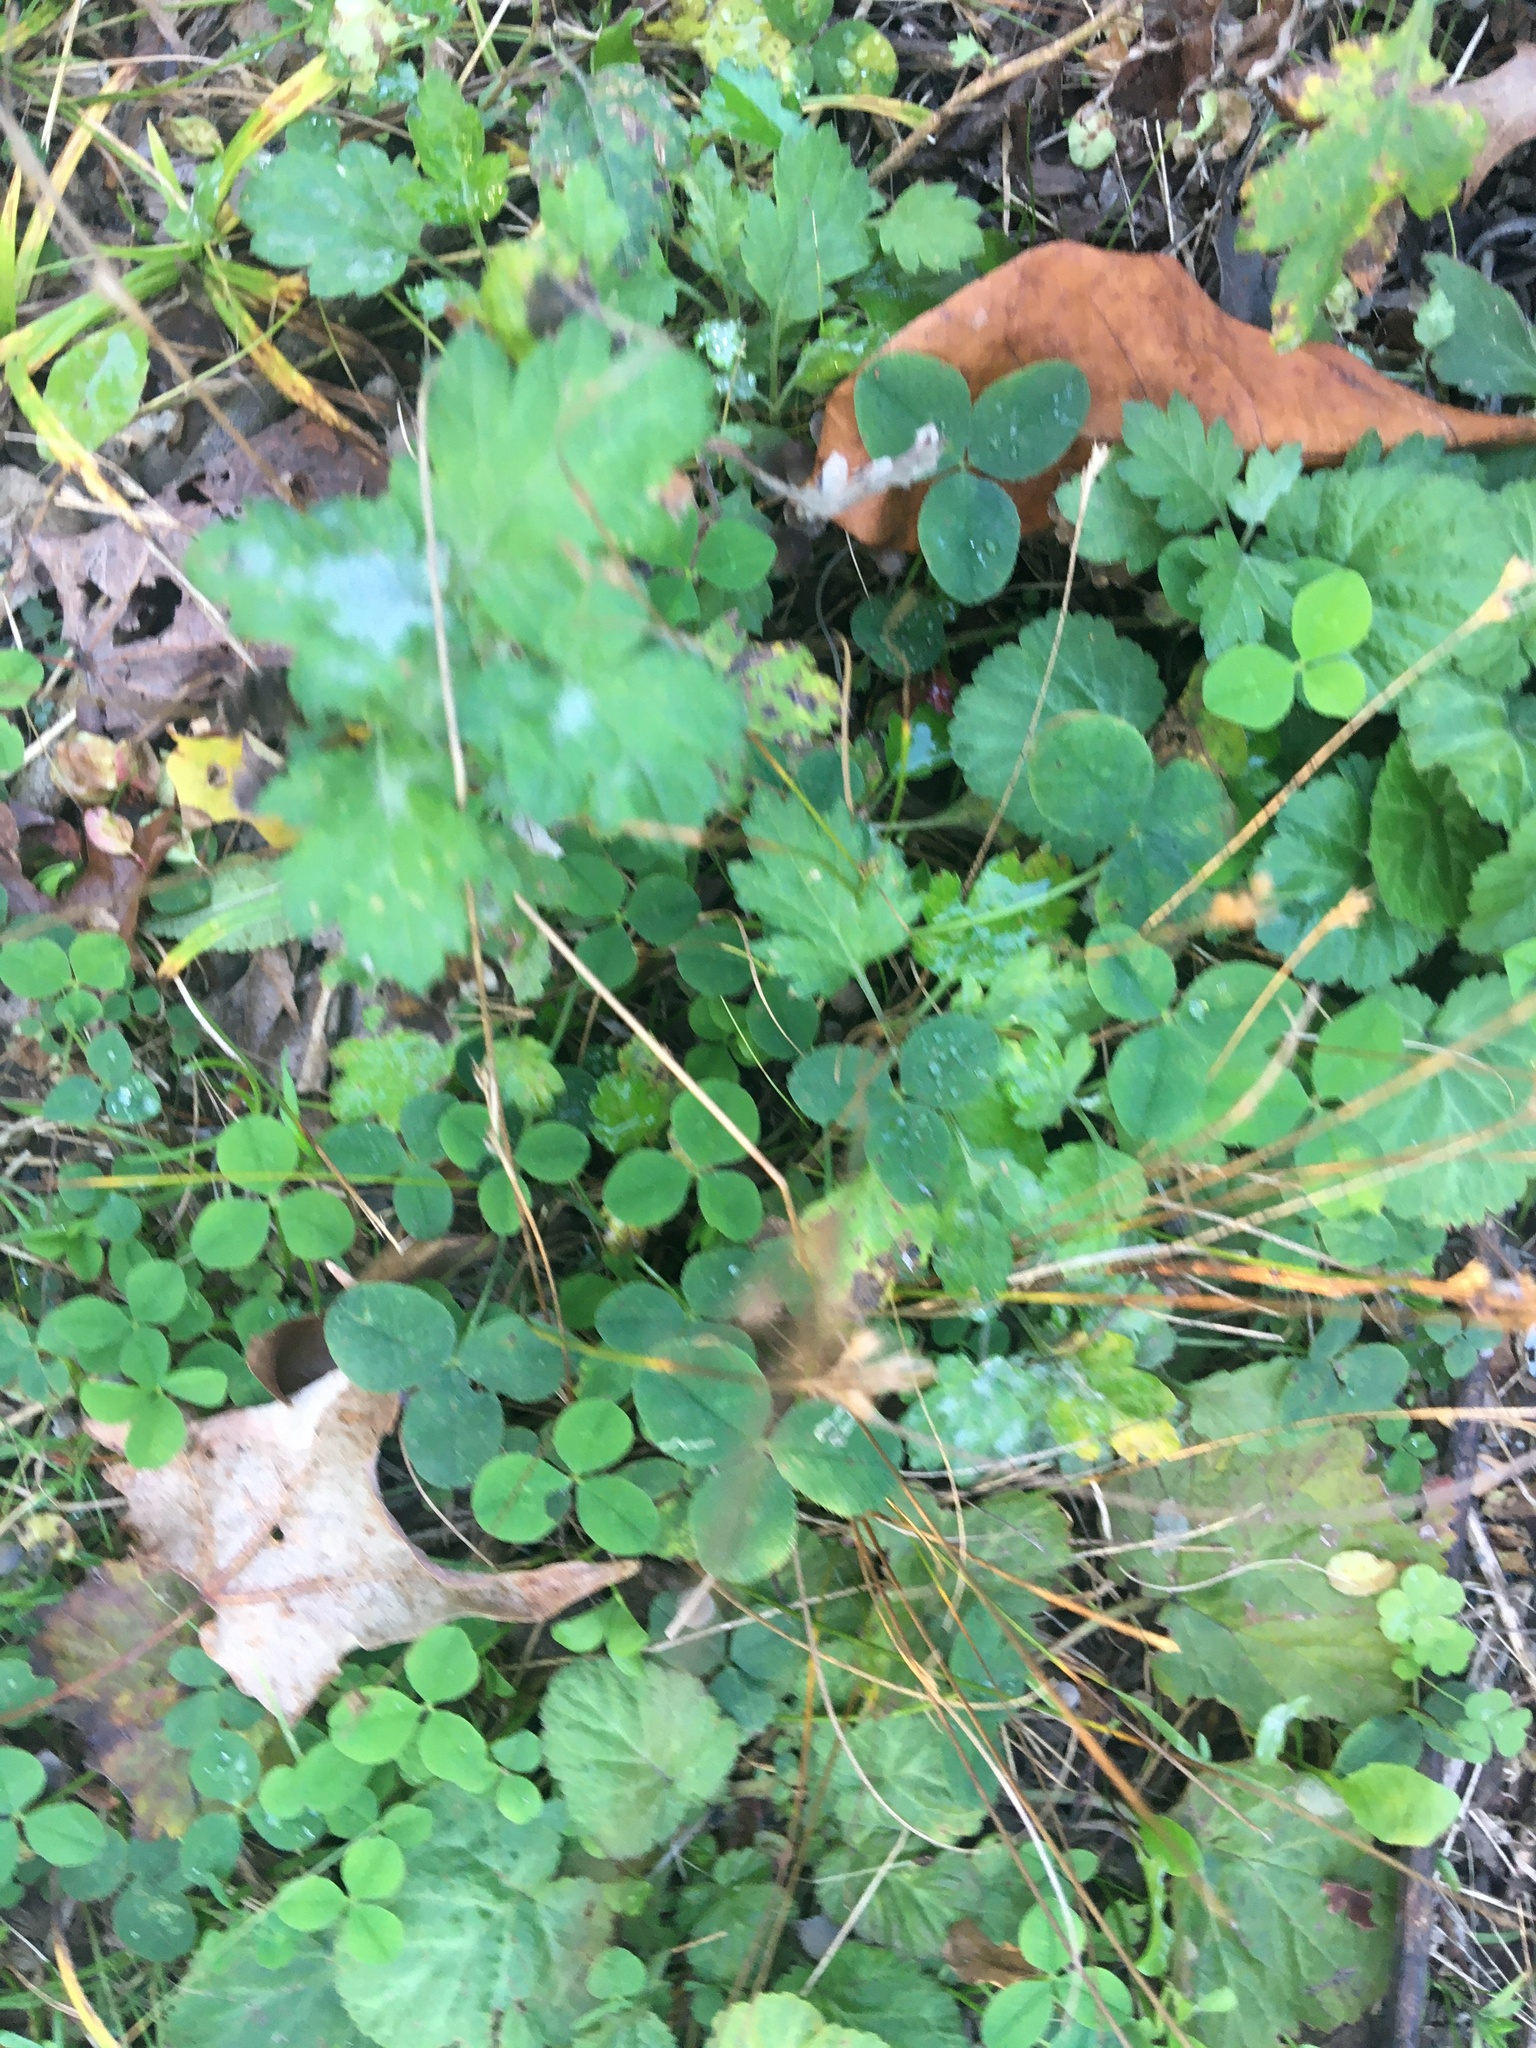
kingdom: Plantae
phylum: Tracheophyta
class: Magnoliopsida
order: Asterales
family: Asteraceae
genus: Artemisia
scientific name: Artemisia vulgaris
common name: Mugwort
